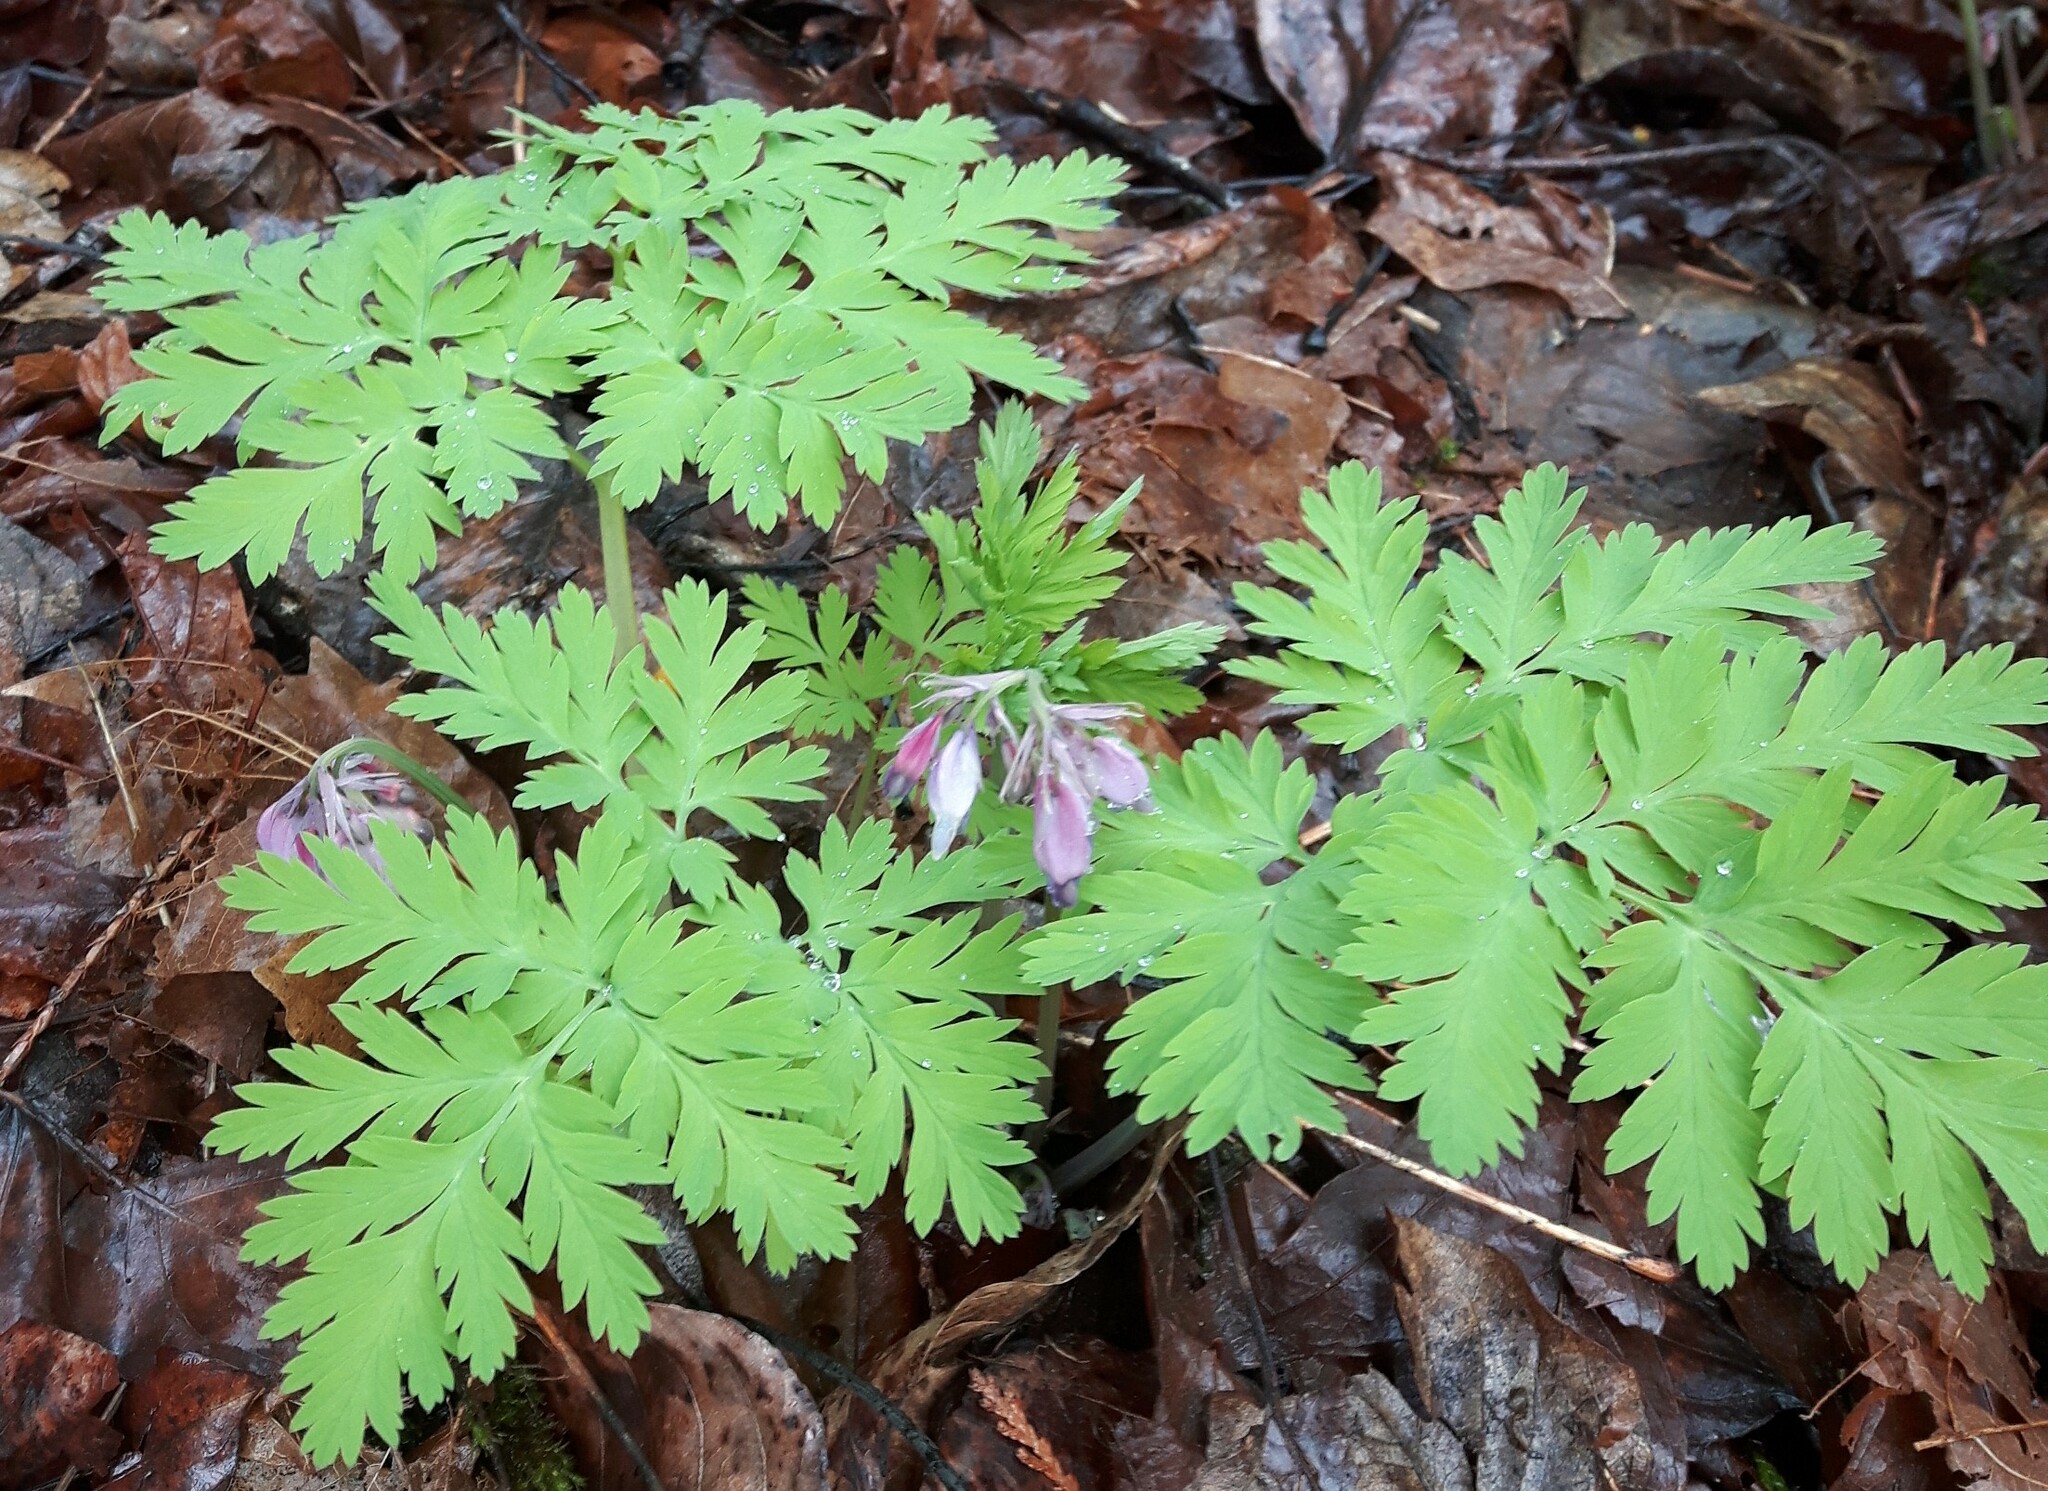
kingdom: Plantae
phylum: Tracheophyta
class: Magnoliopsida
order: Ranunculales
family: Papaveraceae
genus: Dicentra
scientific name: Dicentra formosa
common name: Bleeding-heart
